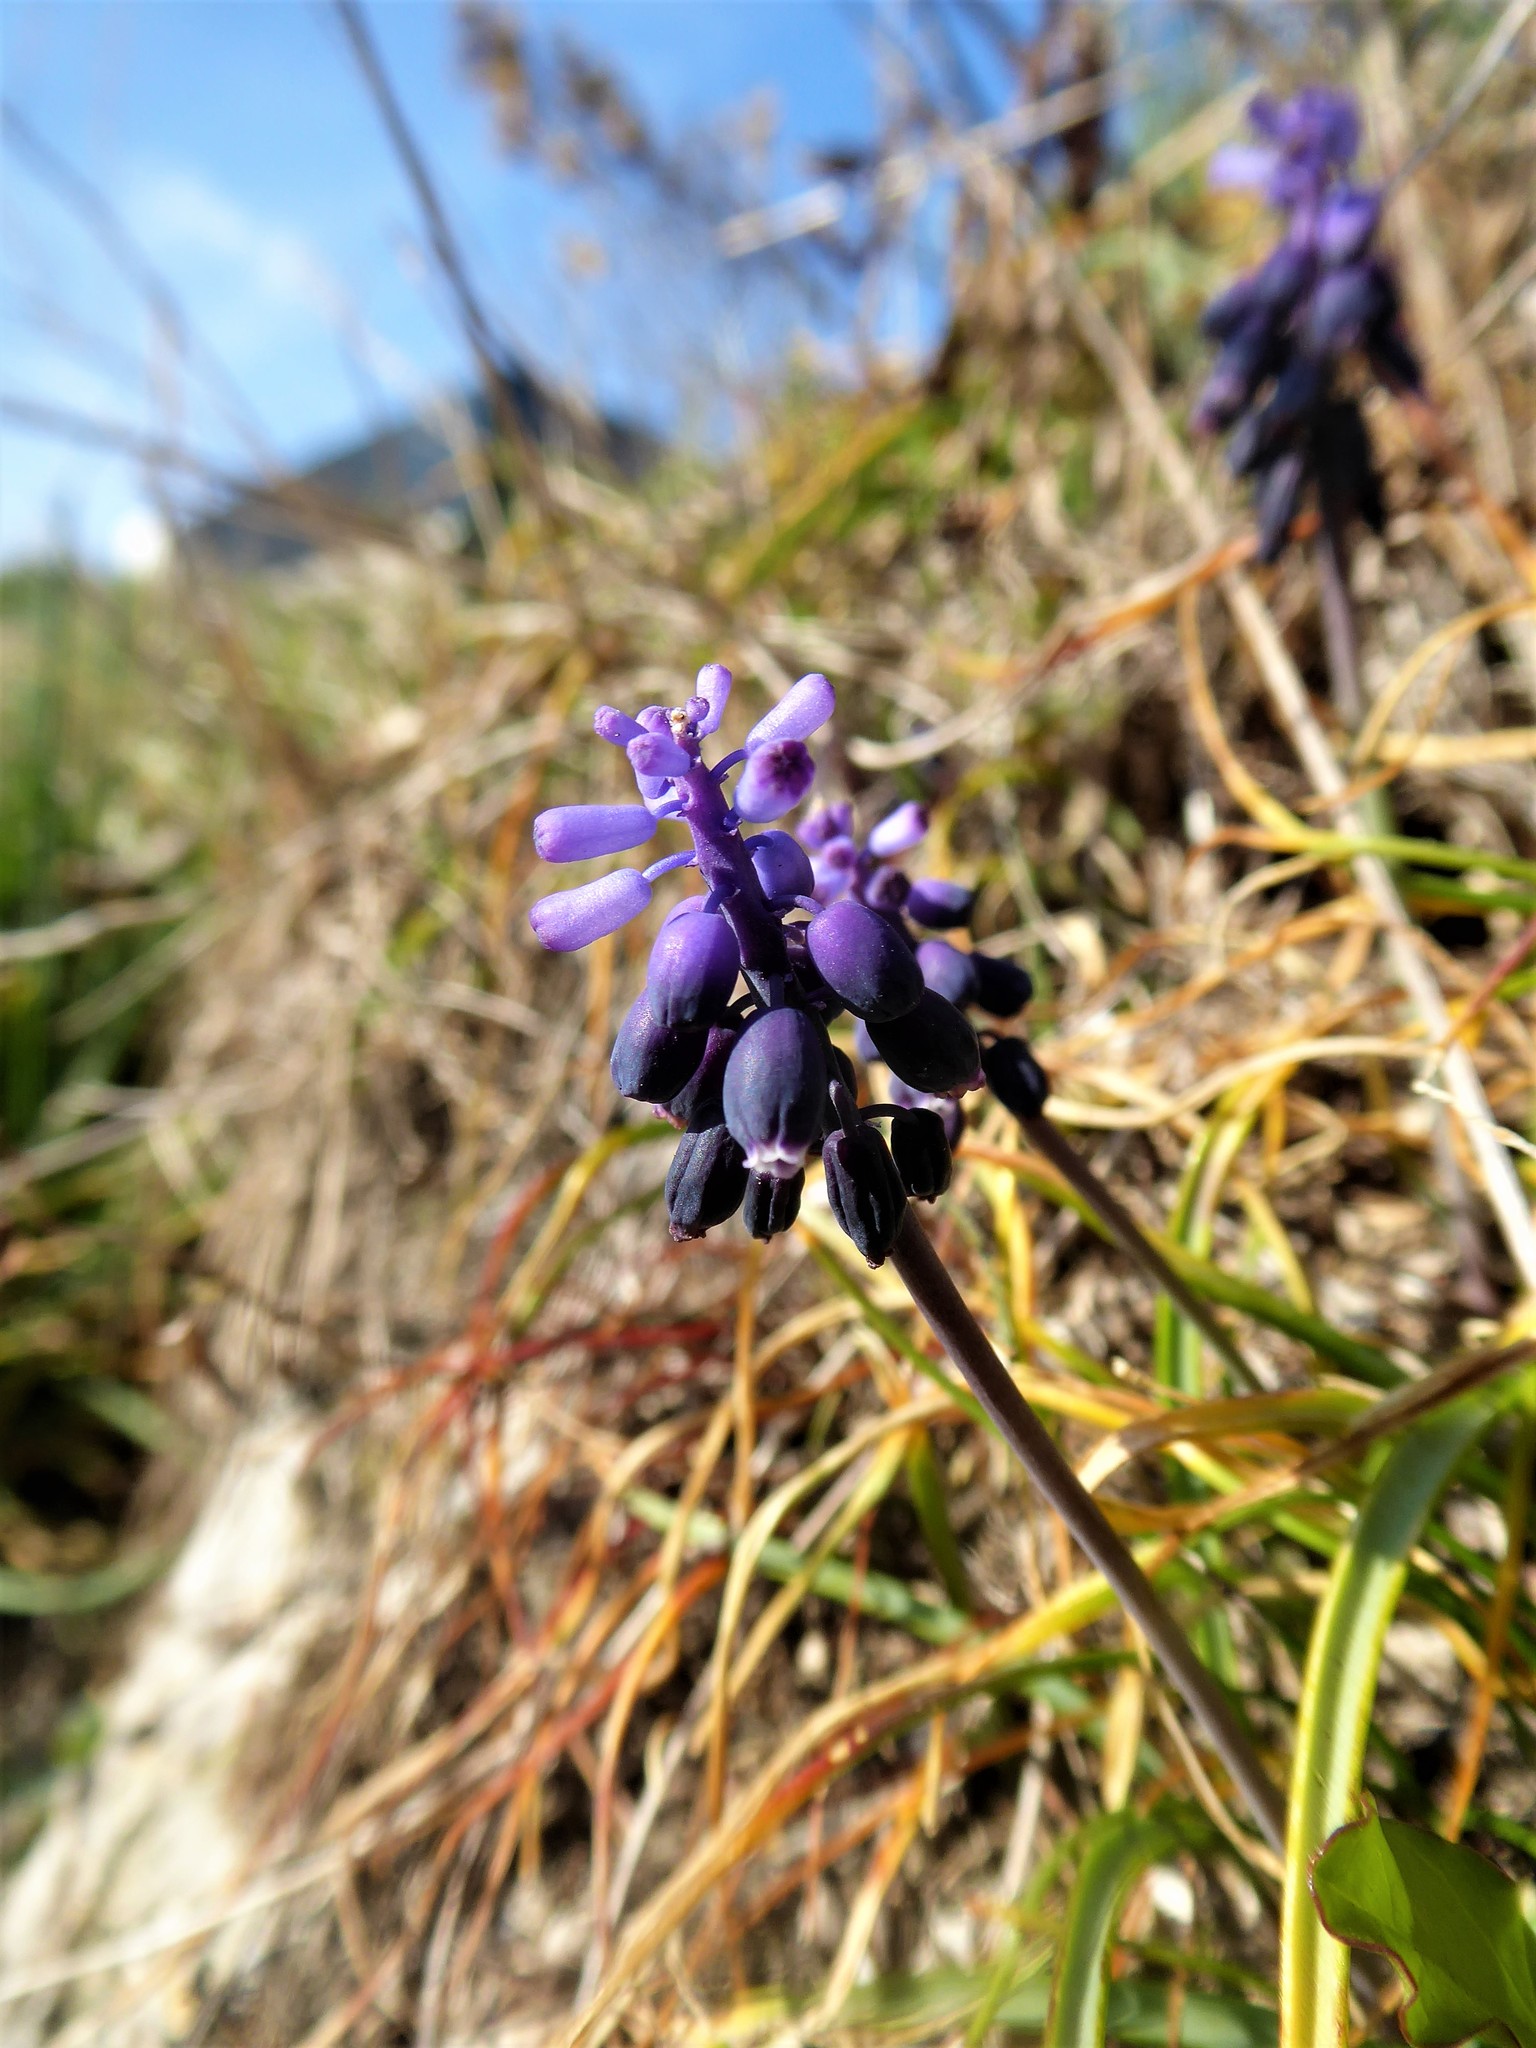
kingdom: Plantae
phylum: Tracheophyta
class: Liliopsida
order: Asparagales
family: Asparagaceae
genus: Muscari
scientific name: Muscari neglectum
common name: Grape-hyacinth
